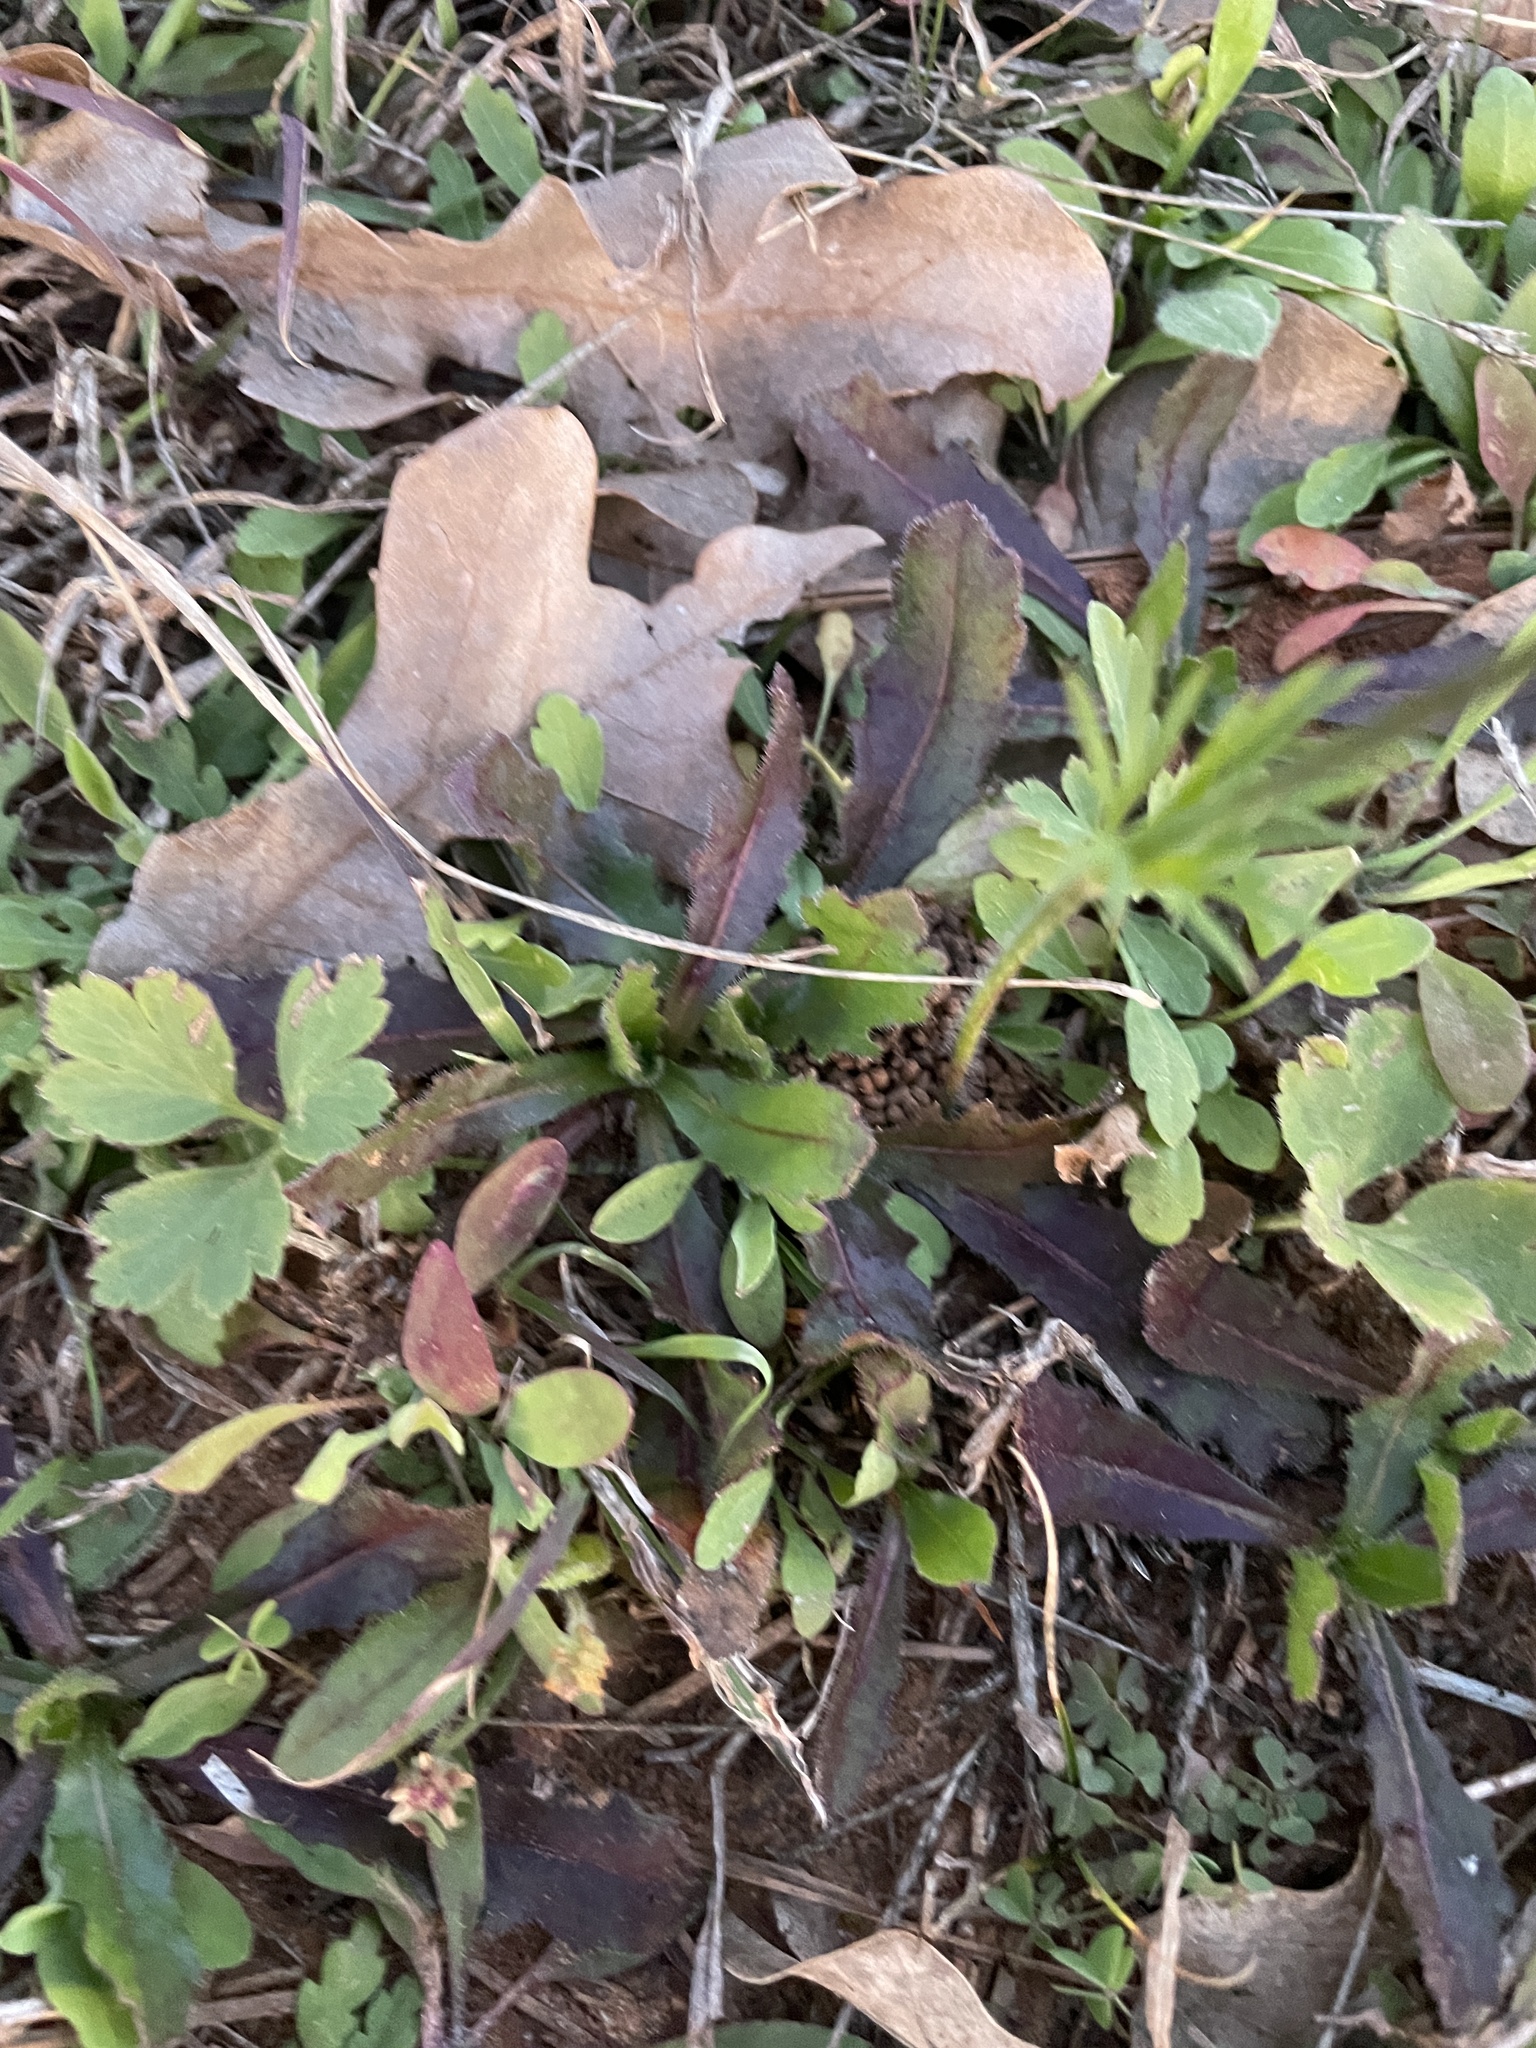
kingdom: Plantae
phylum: Tracheophyta
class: Magnoliopsida
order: Ranunculales
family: Ranunculaceae
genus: Anemone
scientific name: Anemone berlandieri
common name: Ten-petal anemone
